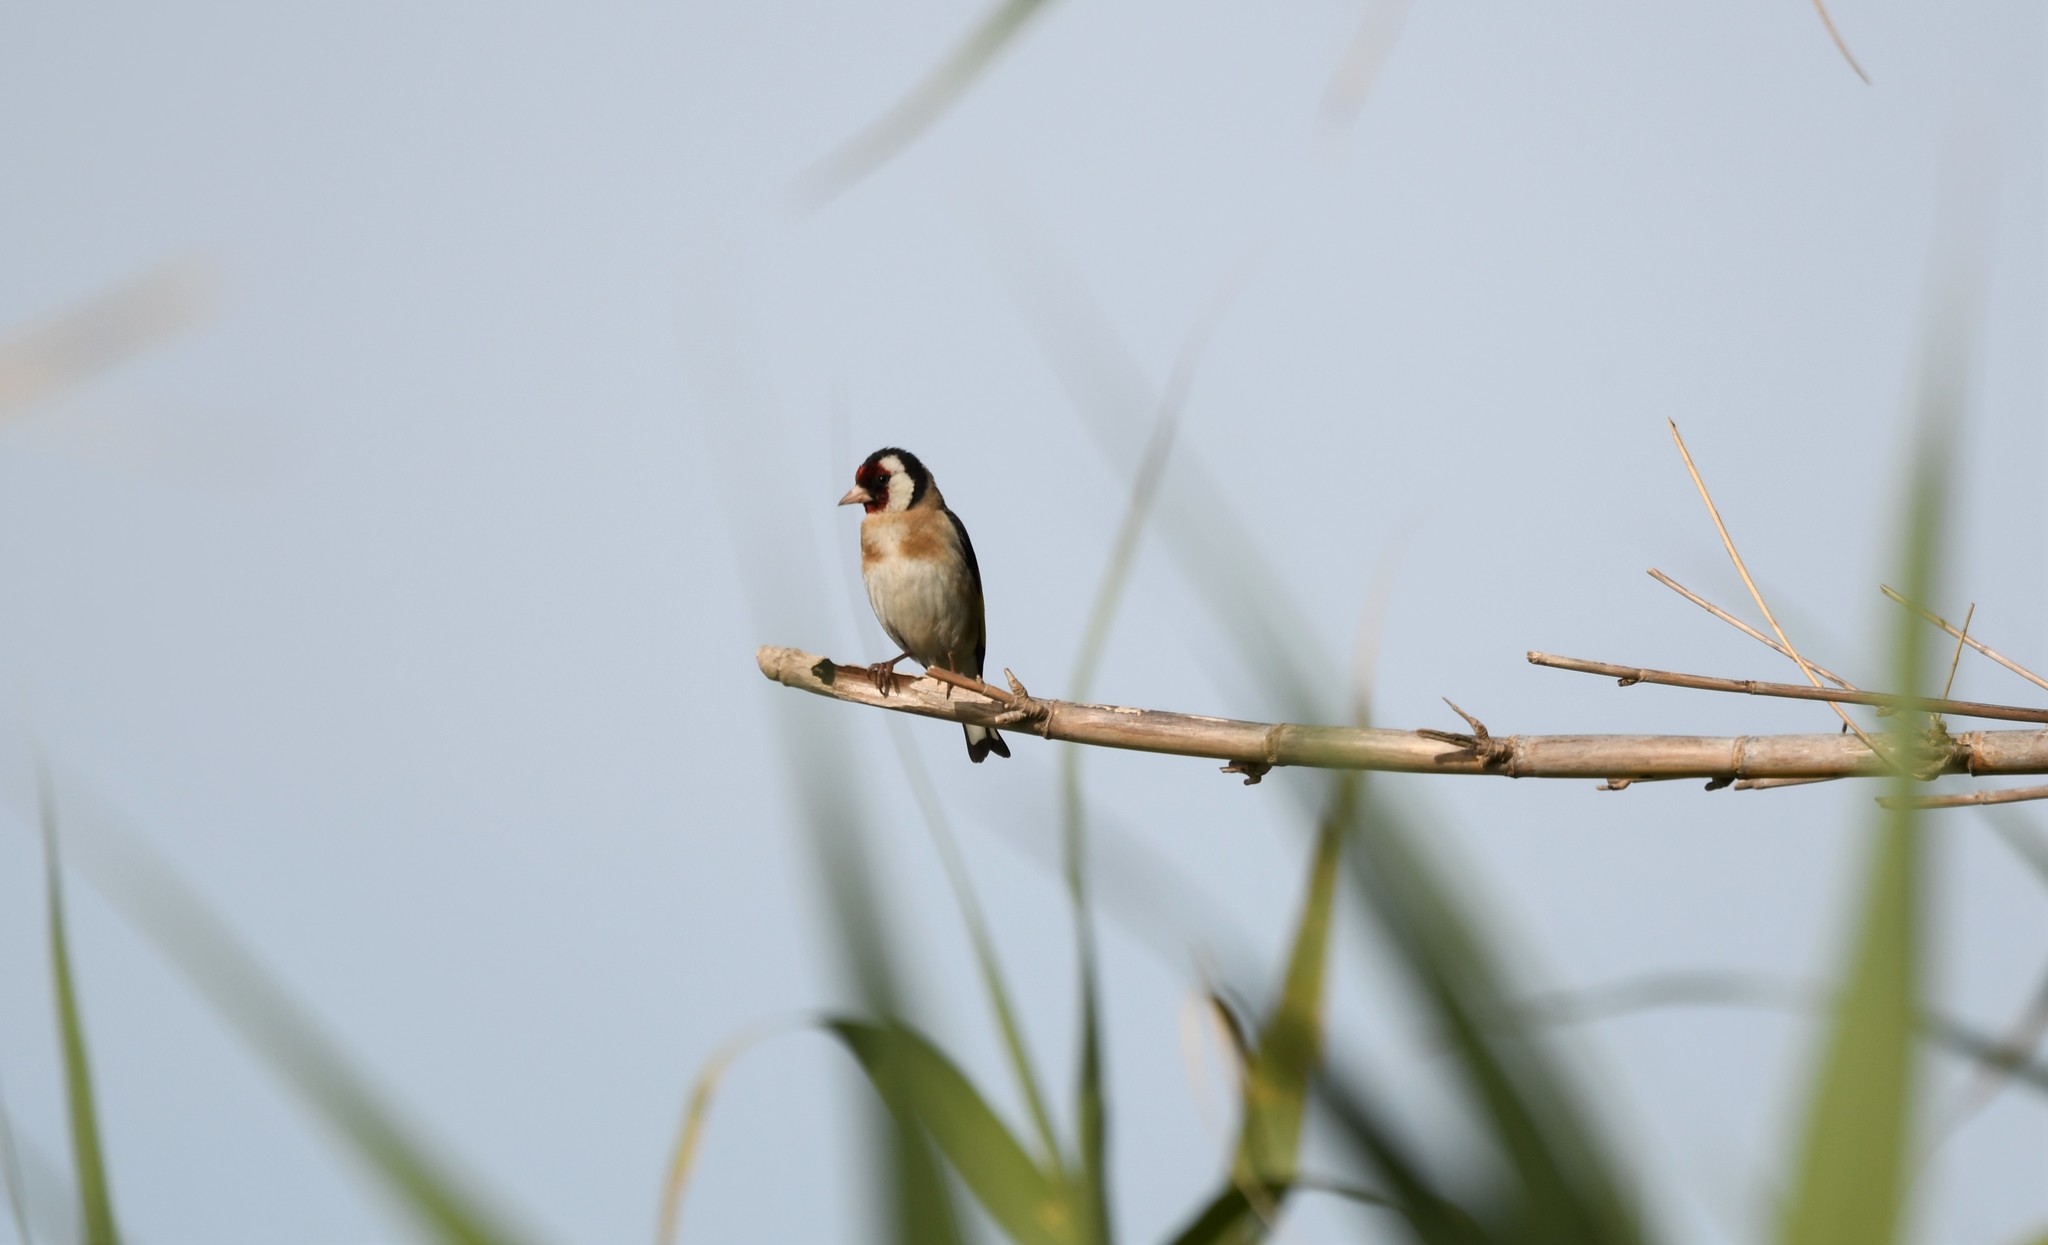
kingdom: Animalia
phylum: Chordata
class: Aves
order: Passeriformes
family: Fringillidae
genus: Carduelis
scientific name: Carduelis carduelis
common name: European goldfinch
